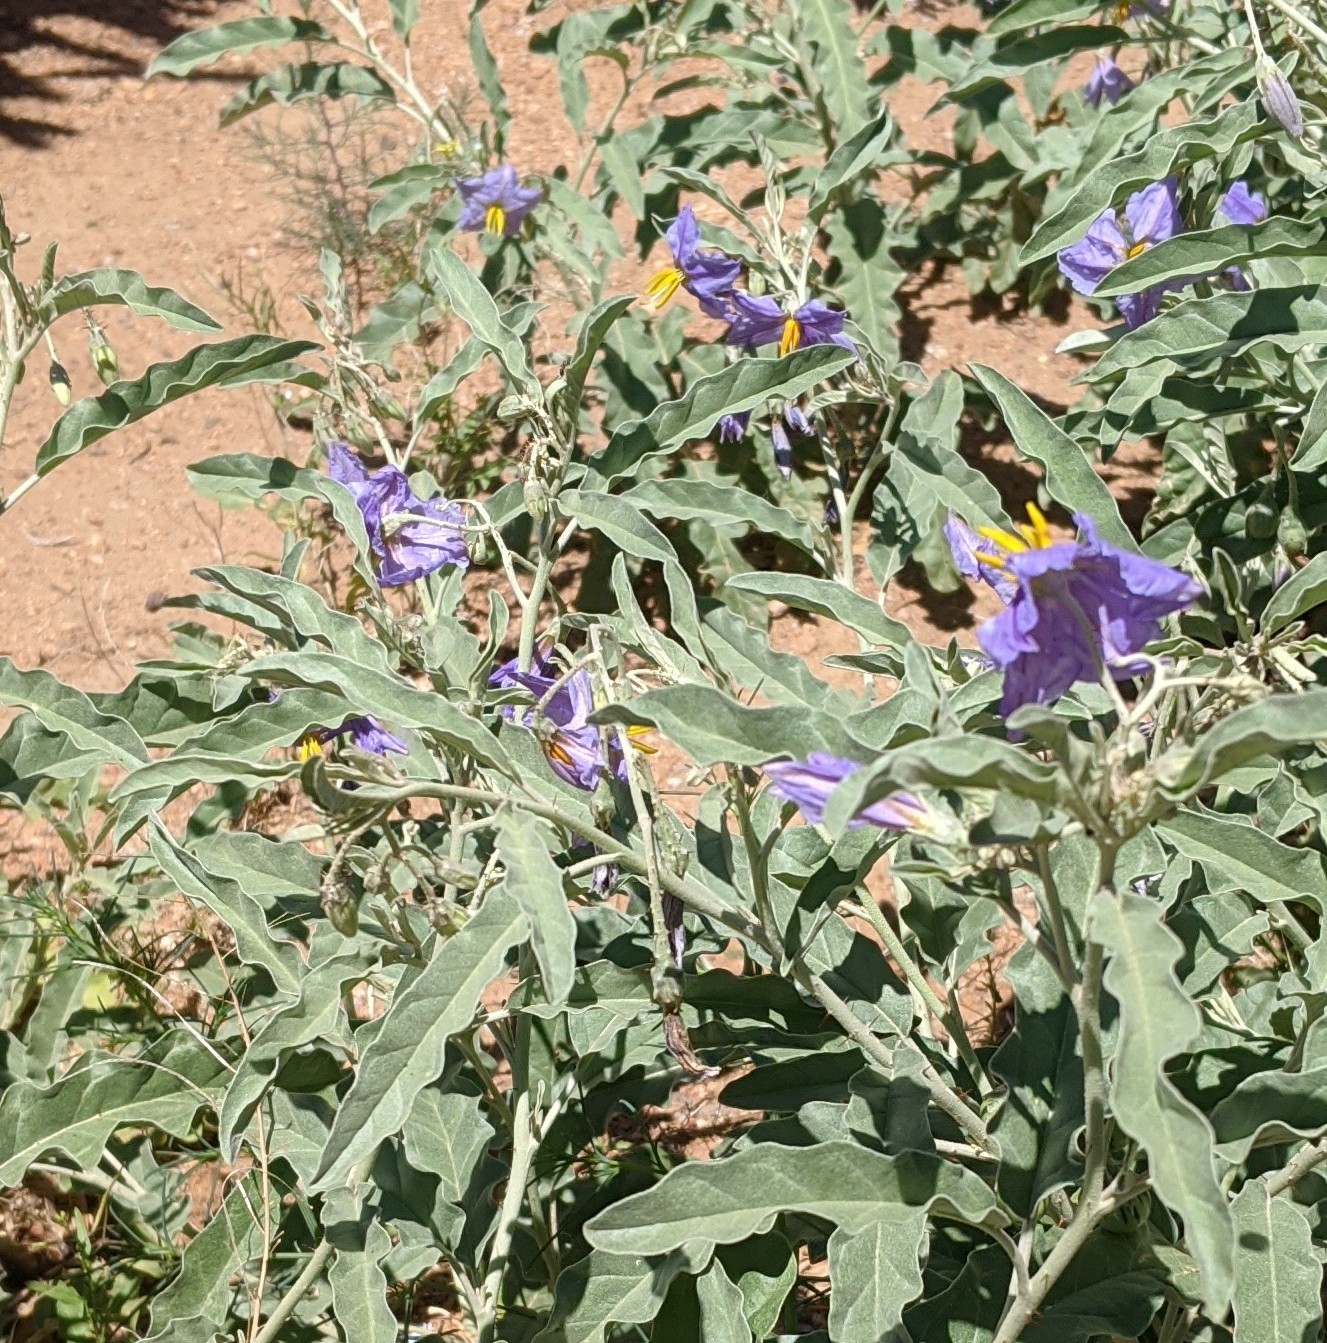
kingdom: Plantae
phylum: Tracheophyta
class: Magnoliopsida
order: Solanales
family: Solanaceae
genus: Solanum
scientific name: Solanum elaeagnifolium
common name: Silverleaf nightshade
